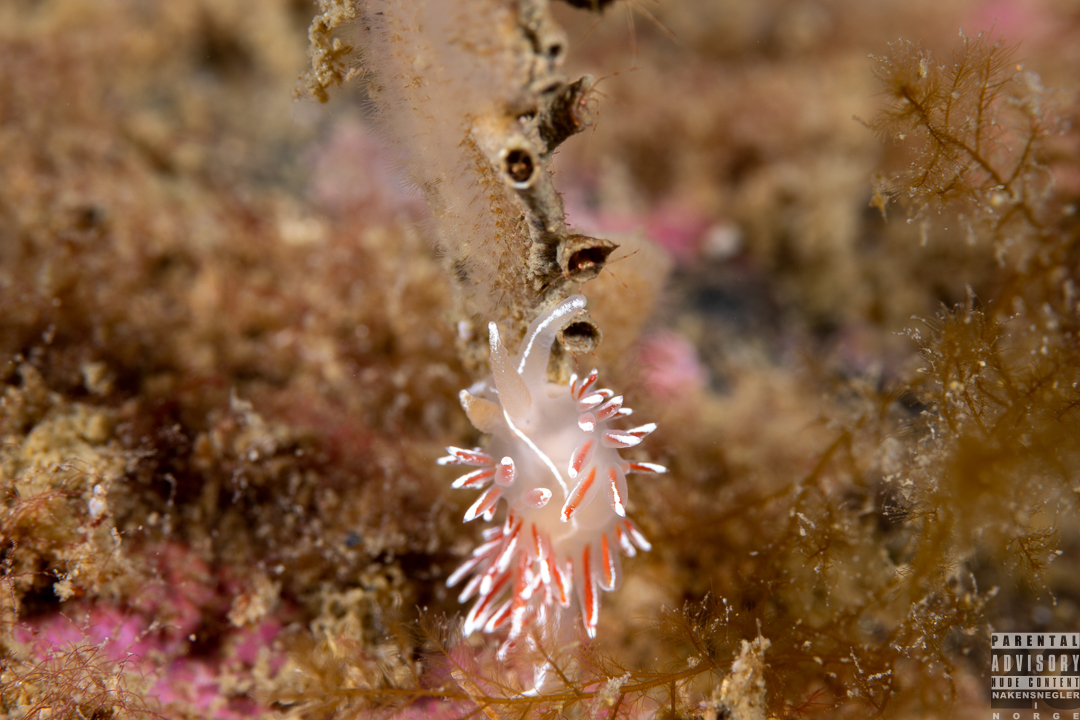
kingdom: Animalia
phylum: Mollusca
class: Gastropoda
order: Nudibranchia
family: Coryphellidae
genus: Coryphella
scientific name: Coryphella lineata
